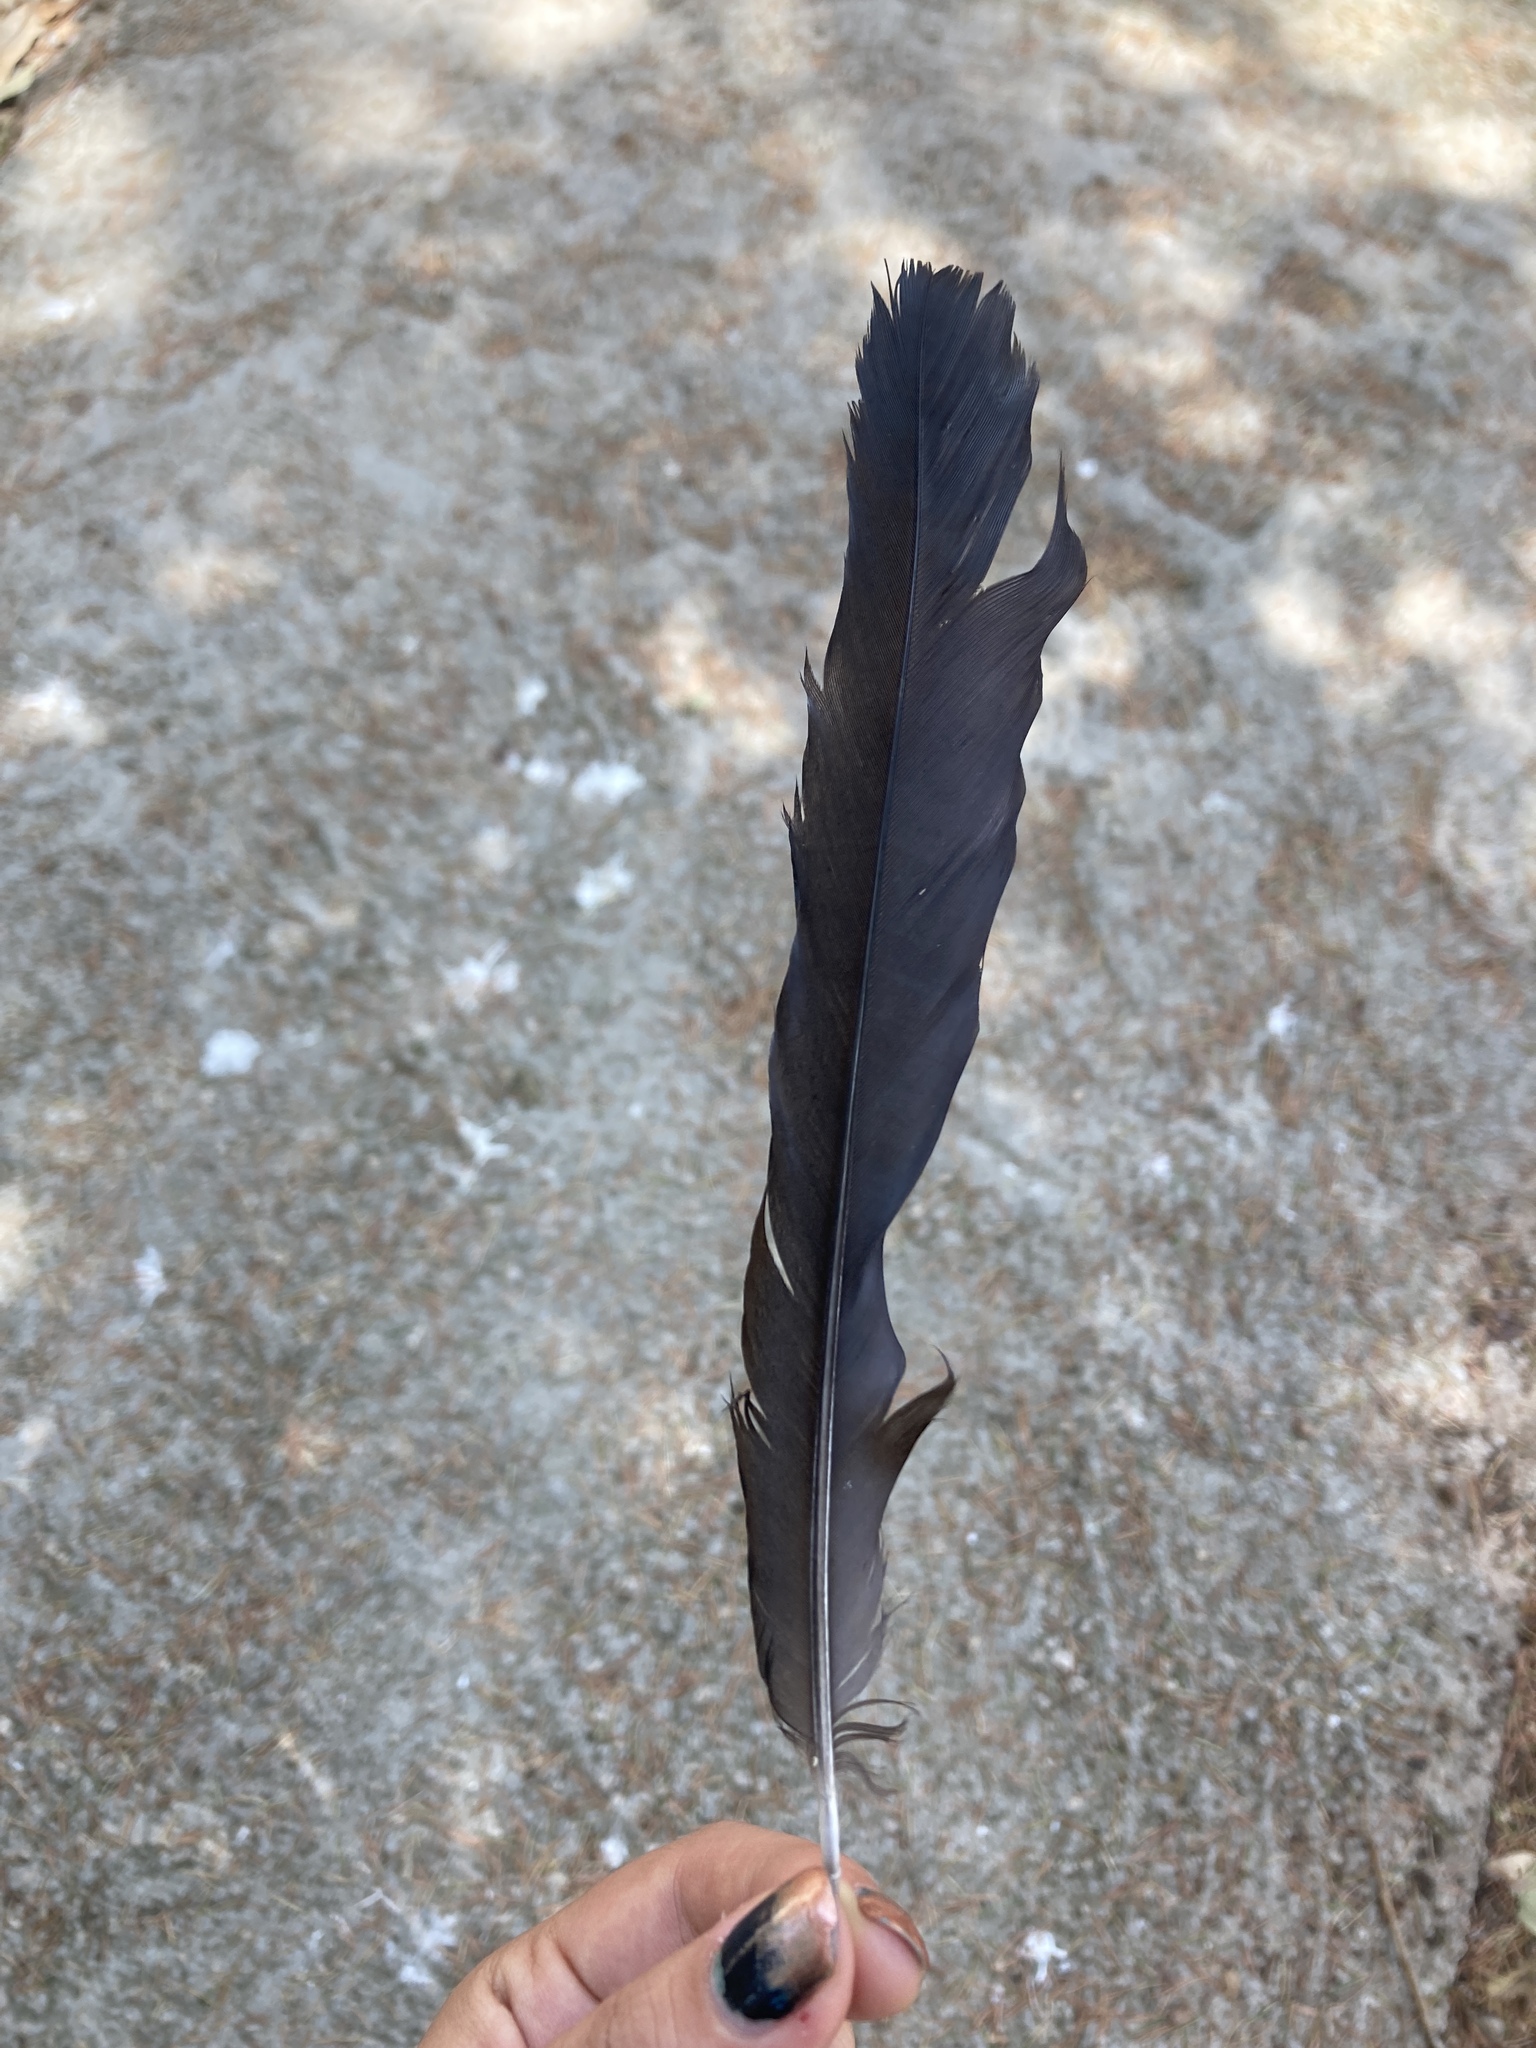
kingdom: Animalia
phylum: Chordata
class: Aves
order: Passeriformes
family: Corvidae
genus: Pica
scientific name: Pica pica
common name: Eurasian magpie
